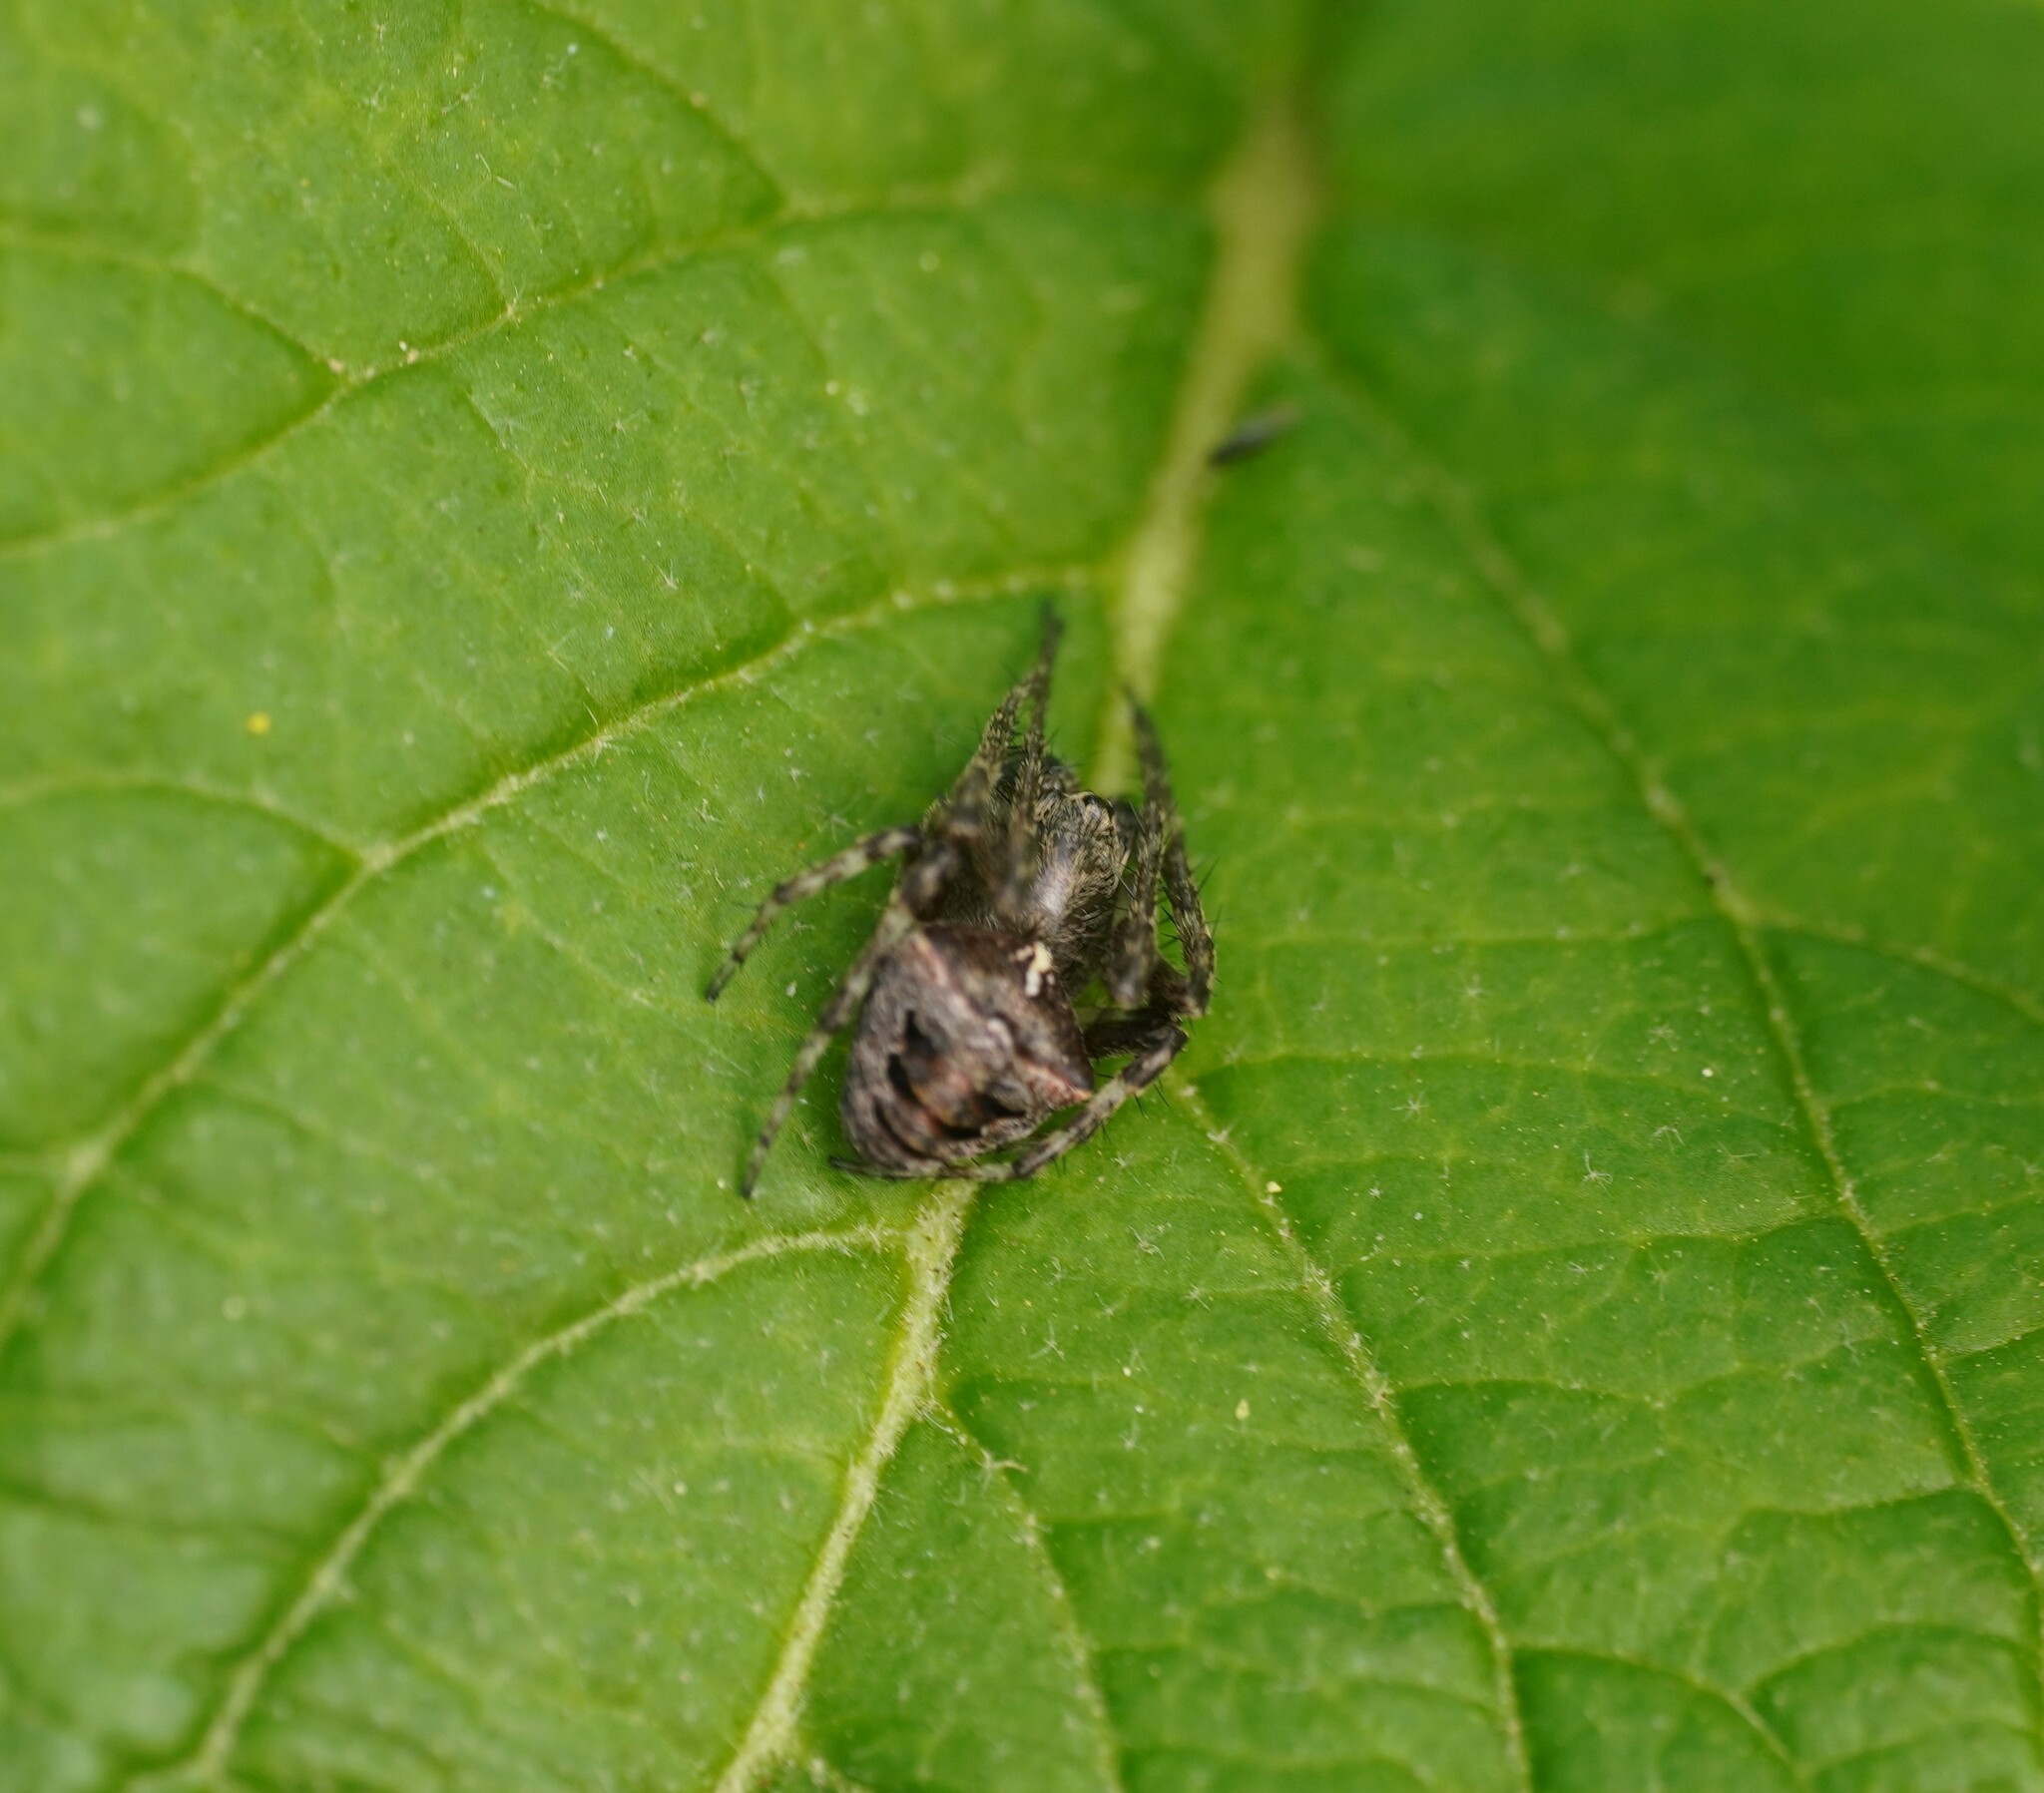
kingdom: Animalia
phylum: Arthropoda
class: Arachnida
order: Araneae
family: Araneidae
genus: Gibbaranea
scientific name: Gibbaranea bituberculata
